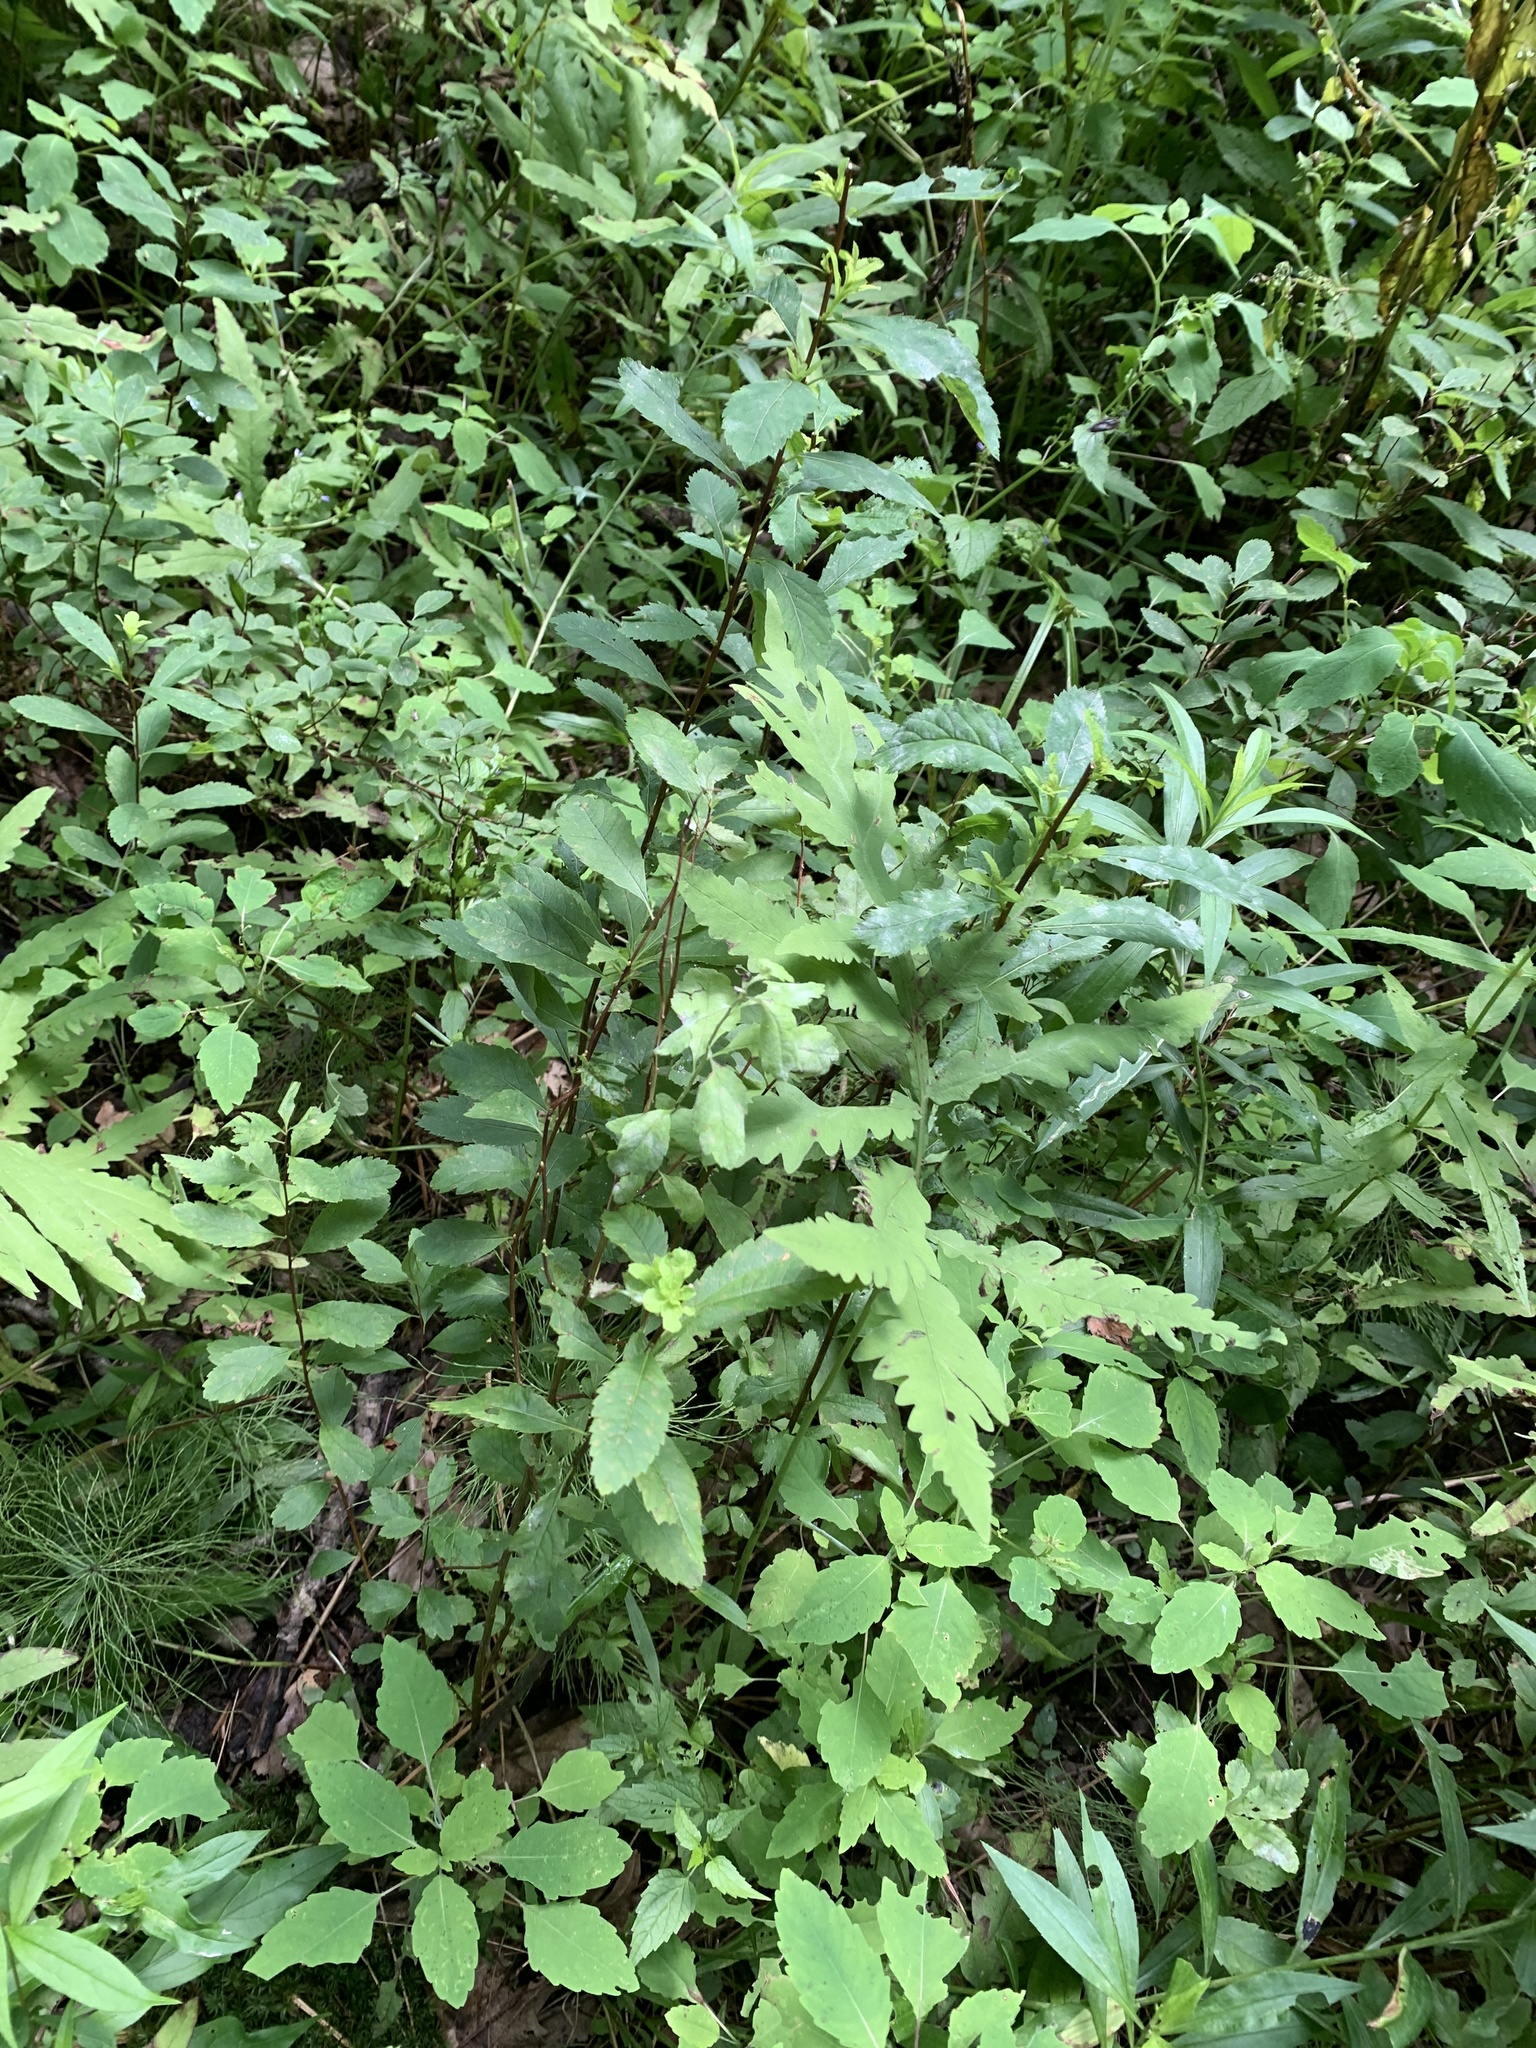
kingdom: Plantae
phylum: Tracheophyta
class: Magnoliopsida
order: Rosales
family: Rosaceae
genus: Spiraea
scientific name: Spiraea alba
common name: Pale bridewort
